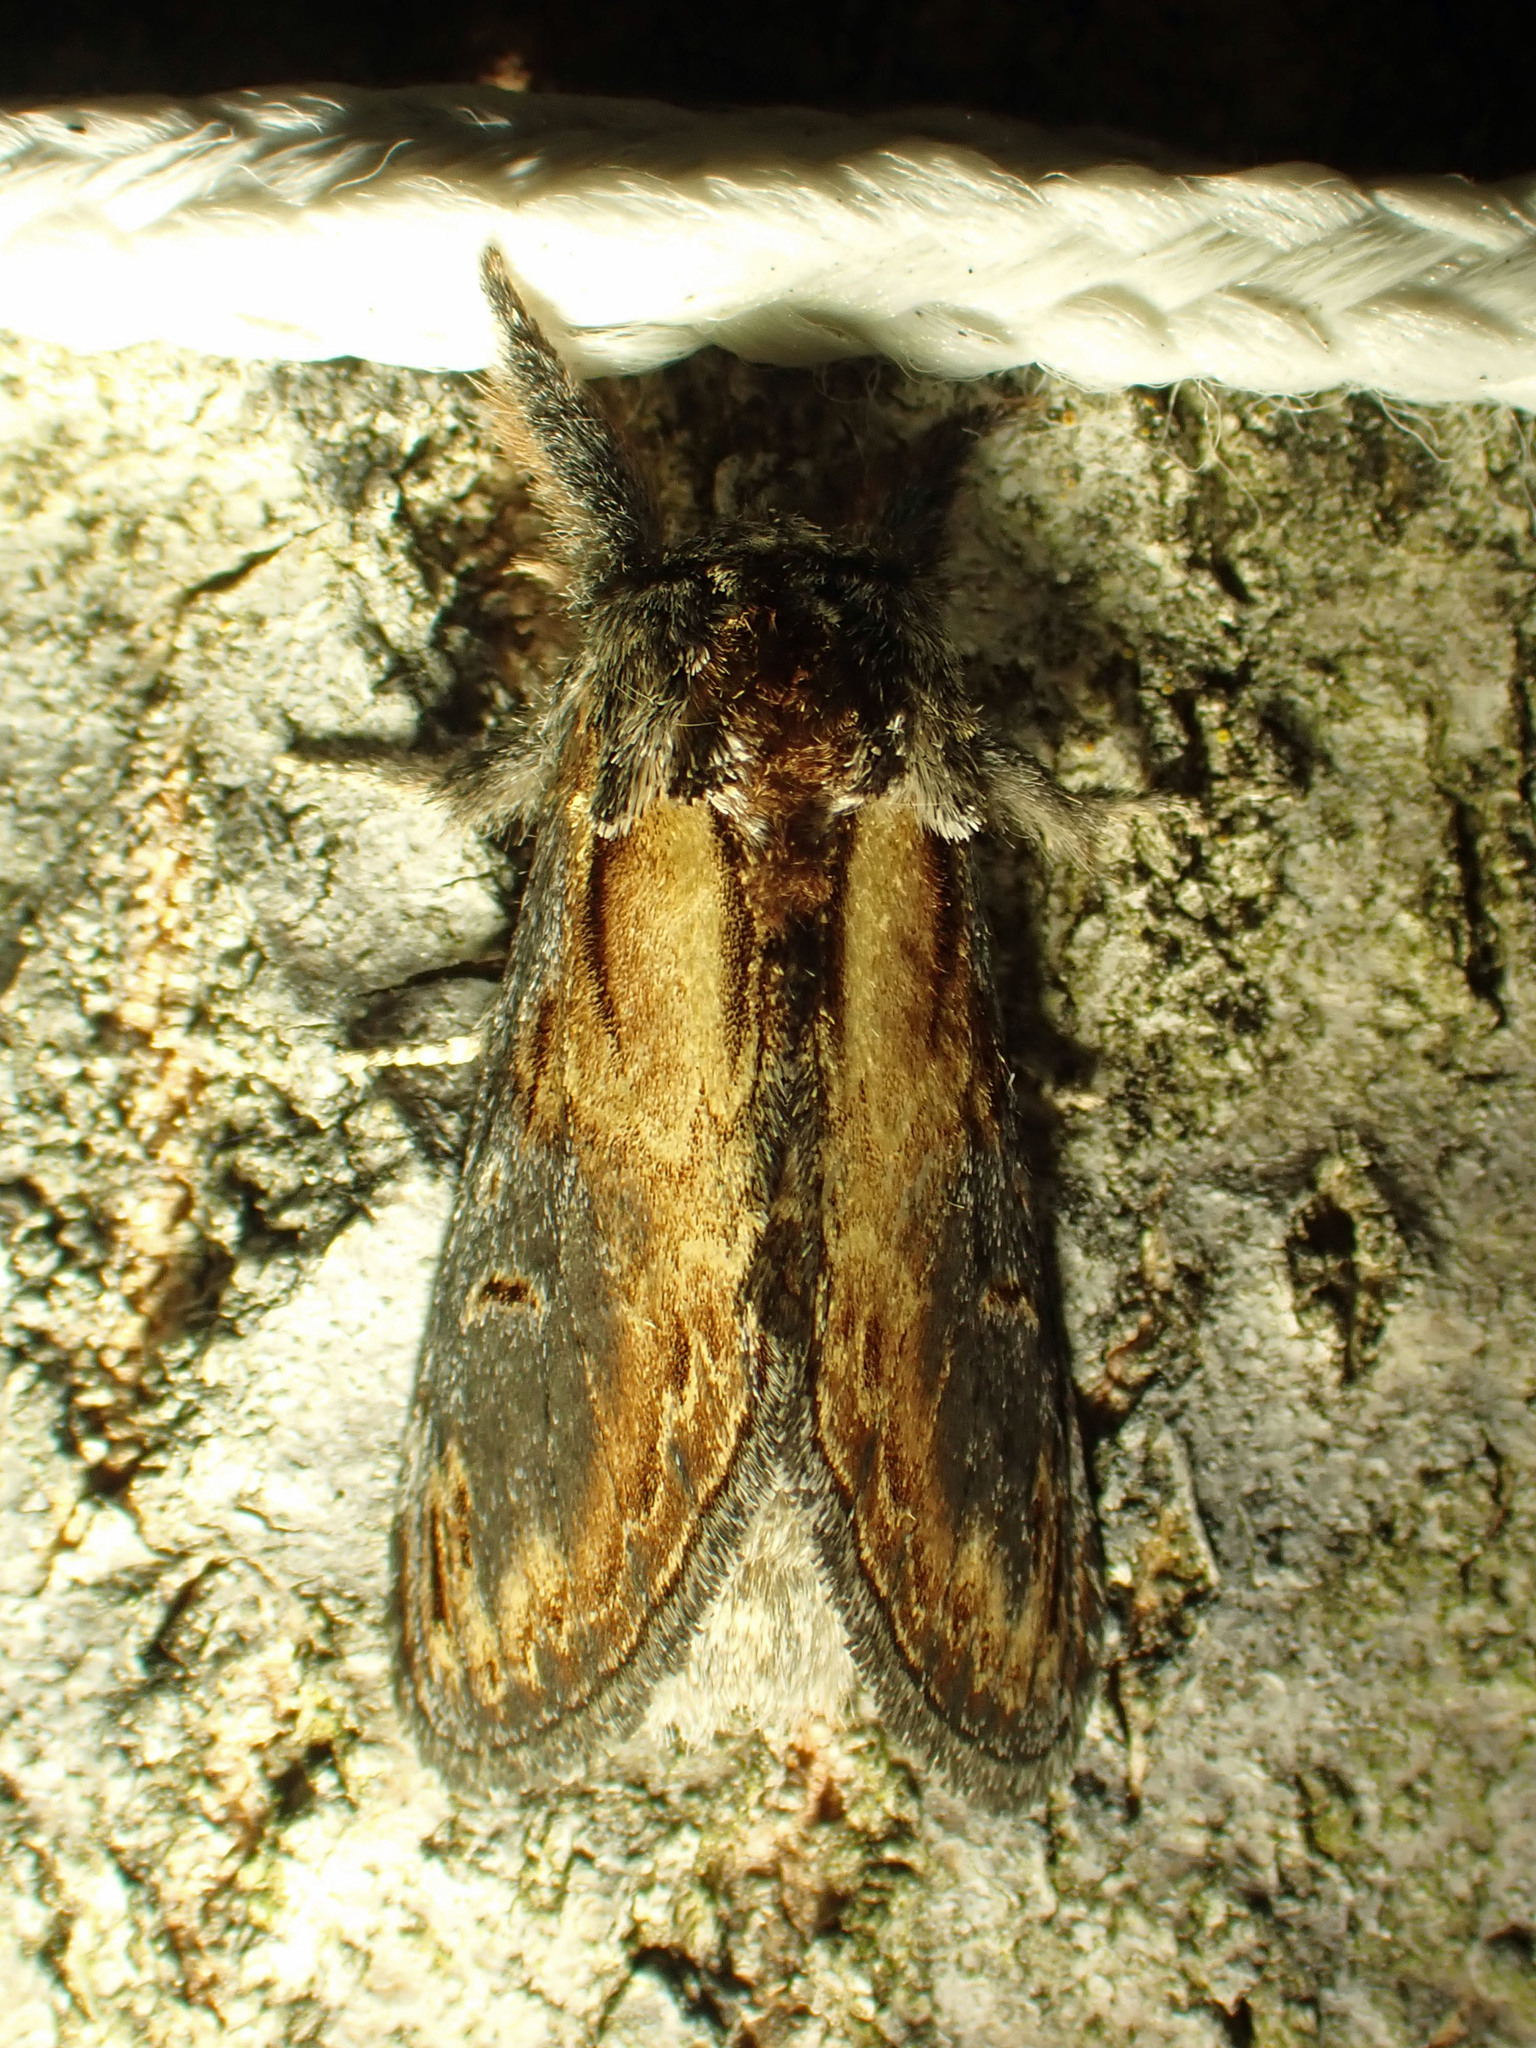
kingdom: Animalia
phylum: Arthropoda
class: Insecta
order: Lepidoptera
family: Notodontidae
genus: Notodonta
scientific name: Notodonta scitipennis
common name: Finned-willow prominent moth
